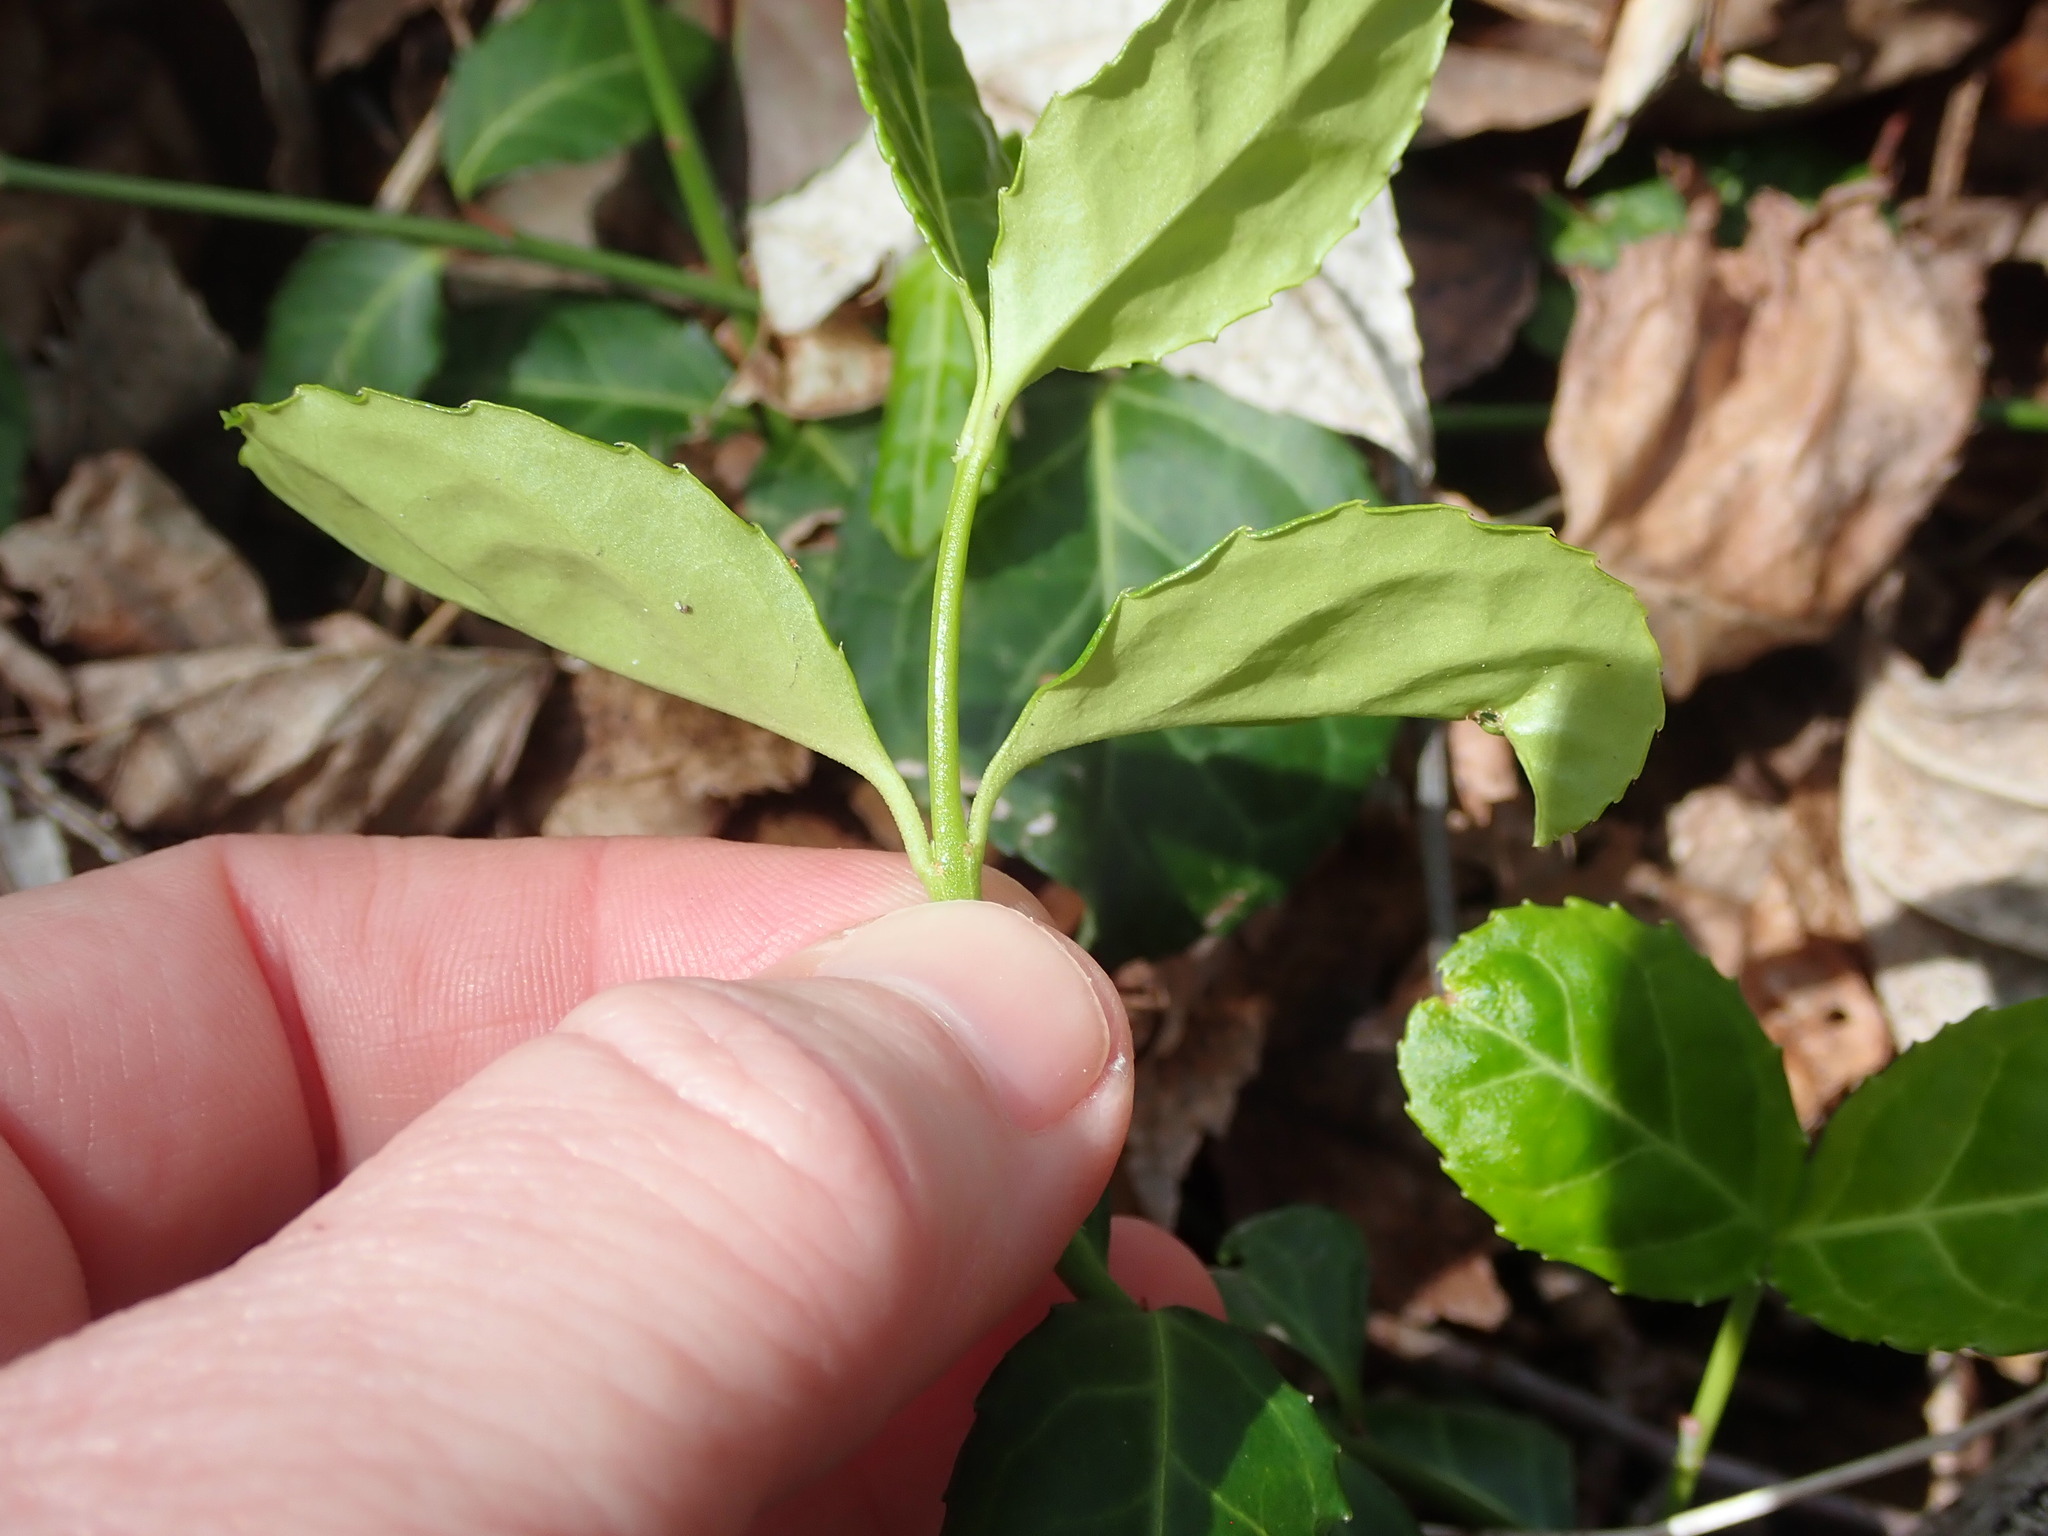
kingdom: Plantae
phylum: Tracheophyta
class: Magnoliopsida
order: Celastrales
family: Celastraceae
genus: Euonymus
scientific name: Euonymus fortunei
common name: Climbing euonymus
